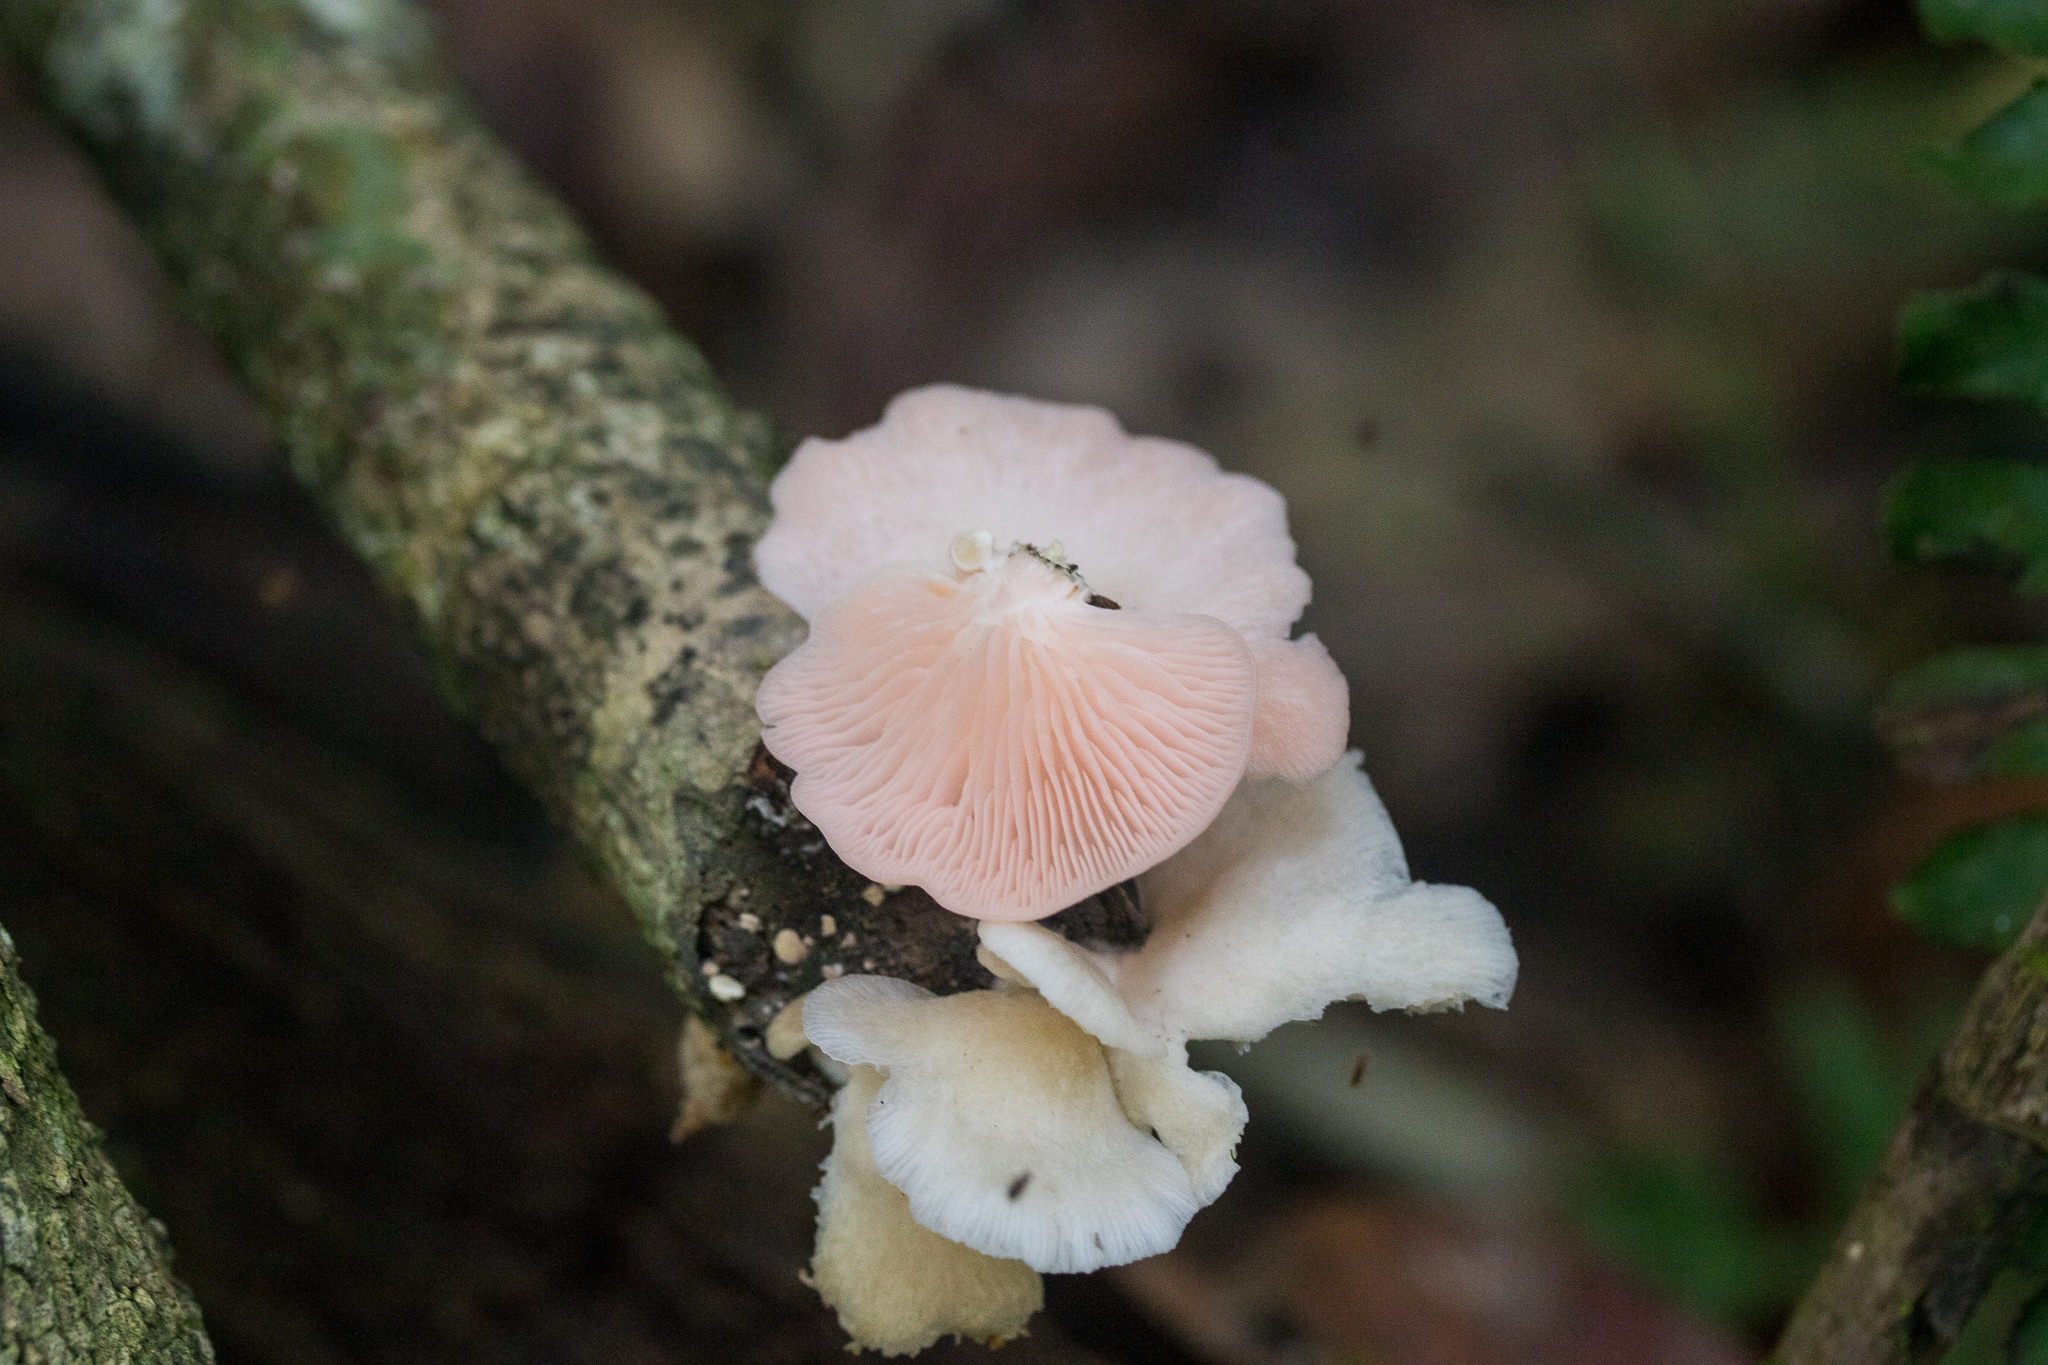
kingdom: Fungi
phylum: Basidiomycota
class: Agaricomycetes
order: Agaricales
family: Pleurotaceae
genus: Pleurotus
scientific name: Pleurotus djamor
